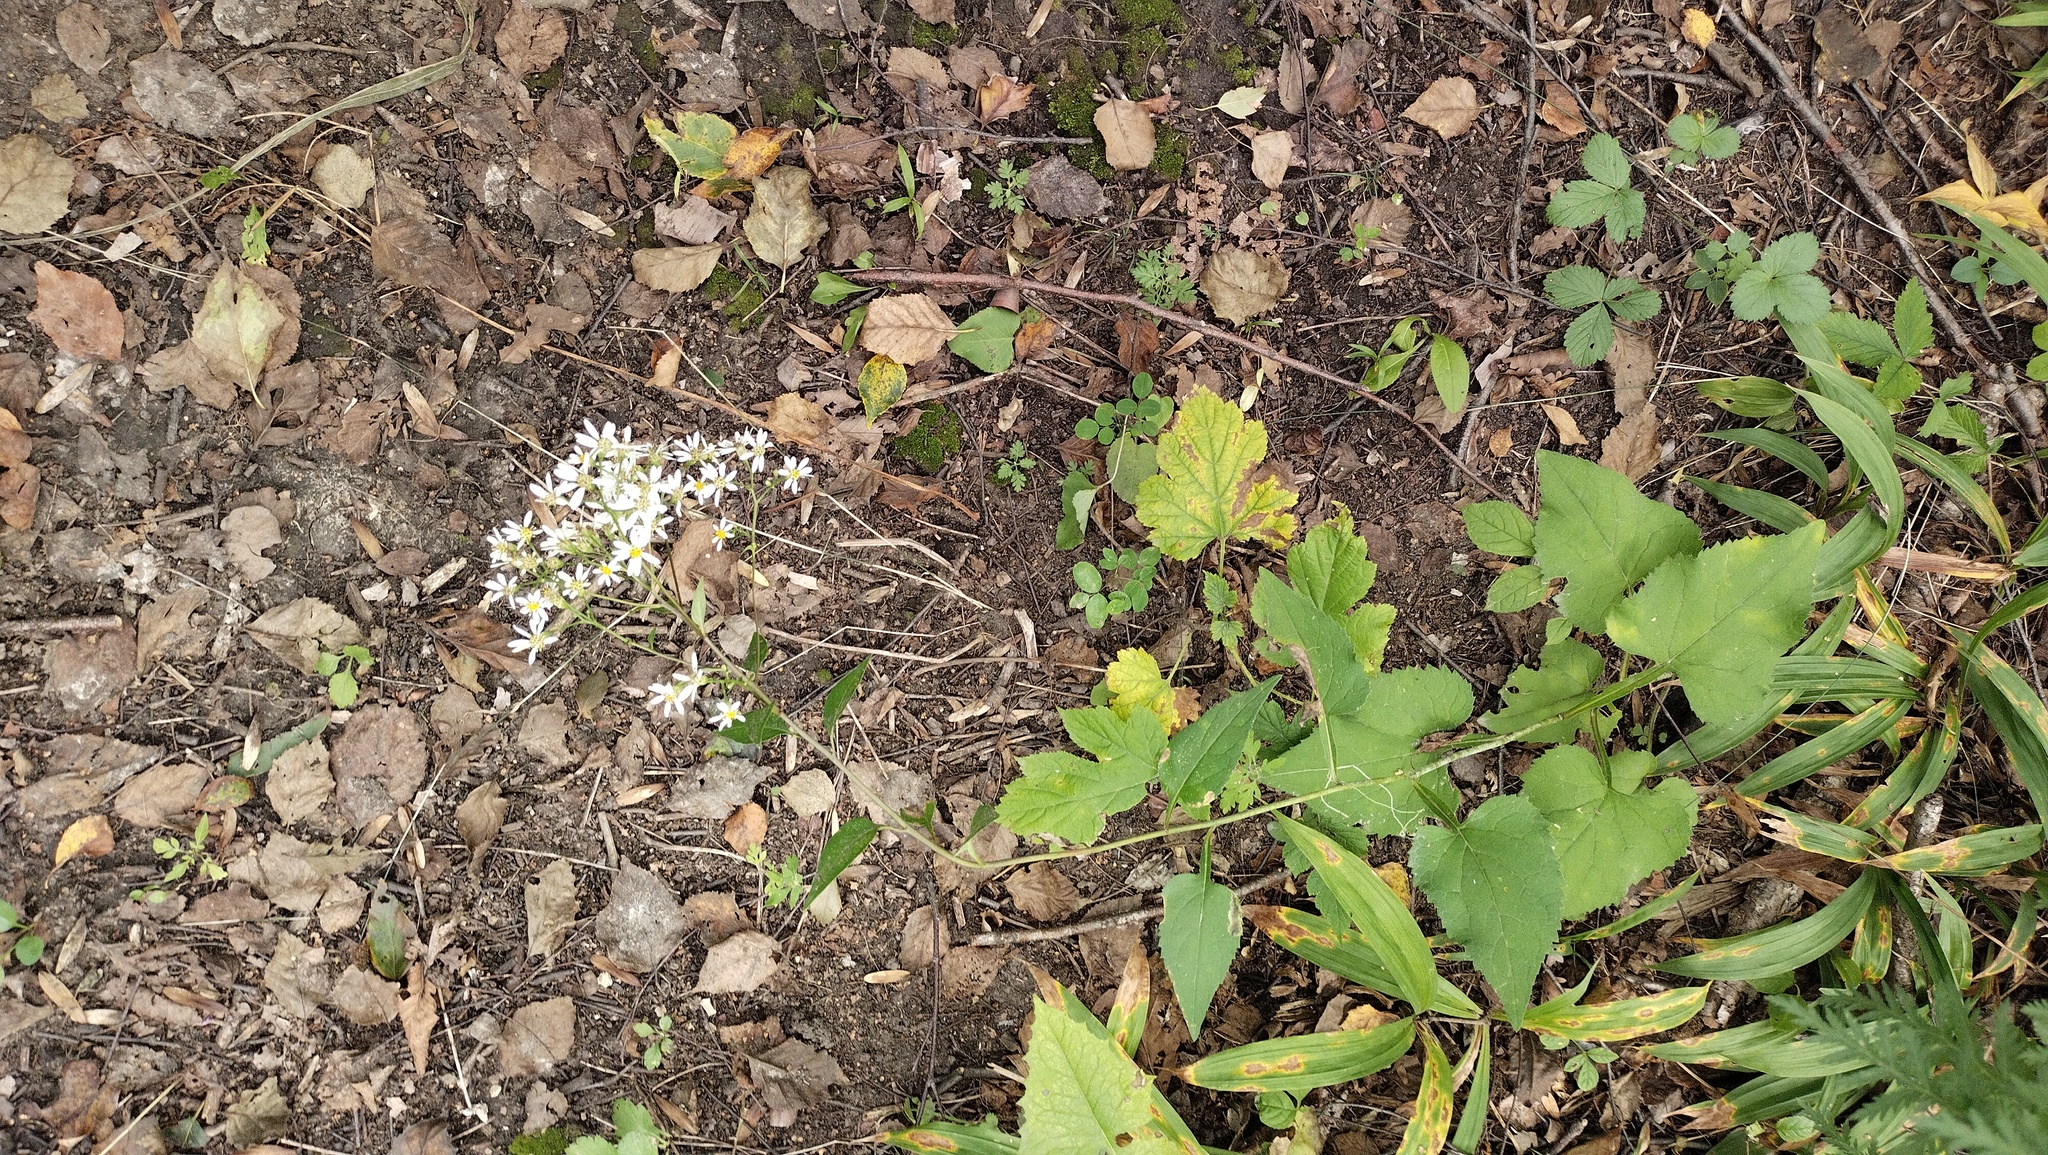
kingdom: Plantae
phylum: Tracheophyta
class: Magnoliopsida
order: Asterales
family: Asteraceae
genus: Aster
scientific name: Aster scaber
